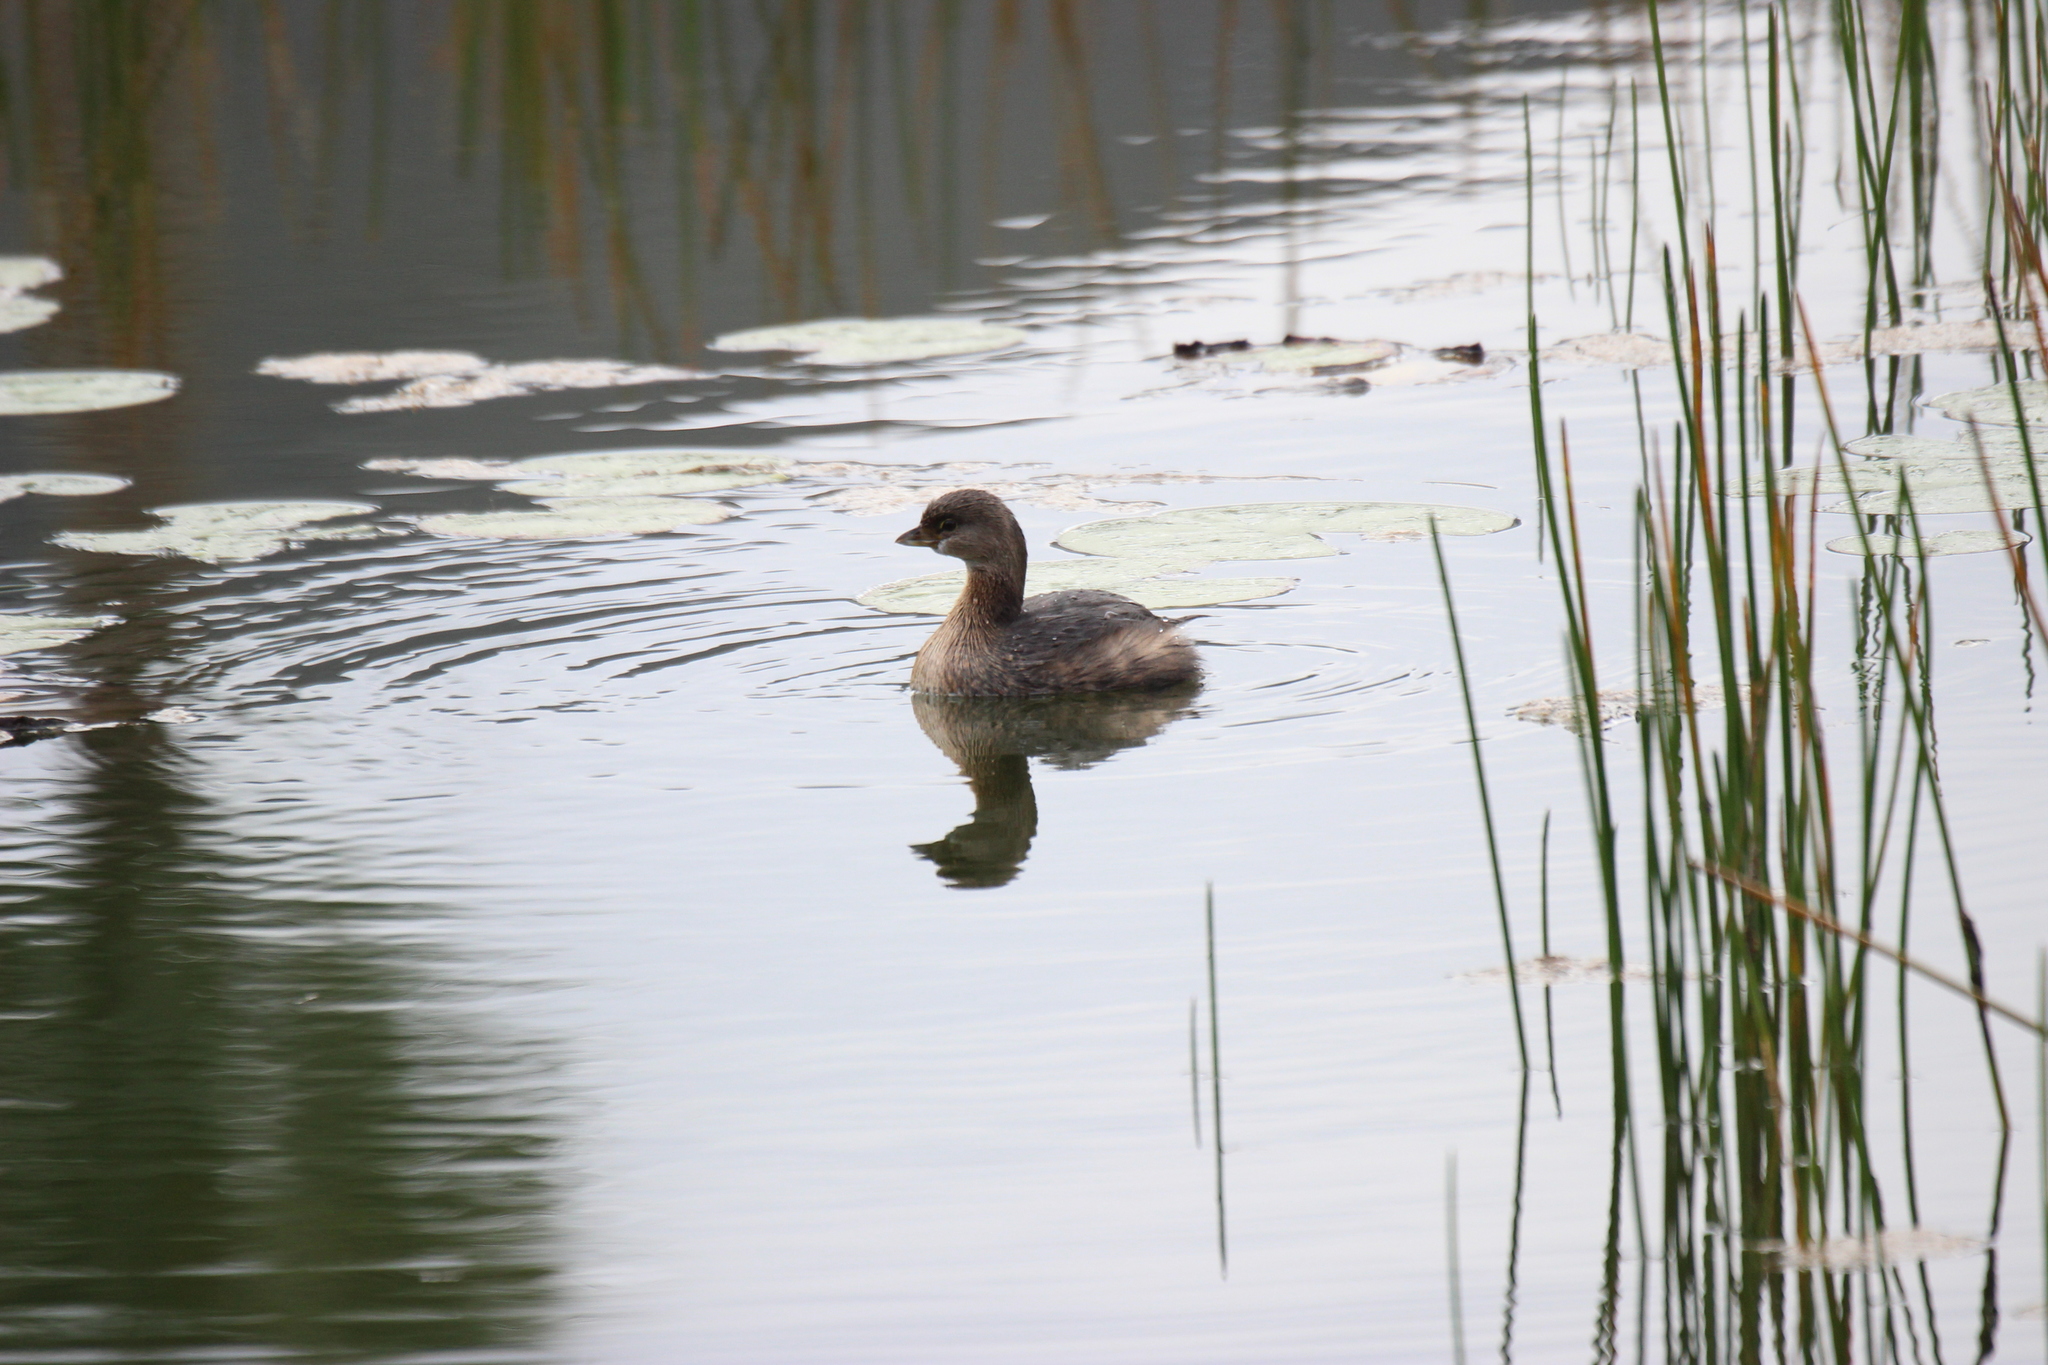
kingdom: Animalia
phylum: Chordata
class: Aves
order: Podicipediformes
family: Podicipedidae
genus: Podilymbus
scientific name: Podilymbus podiceps
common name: Pied-billed grebe
